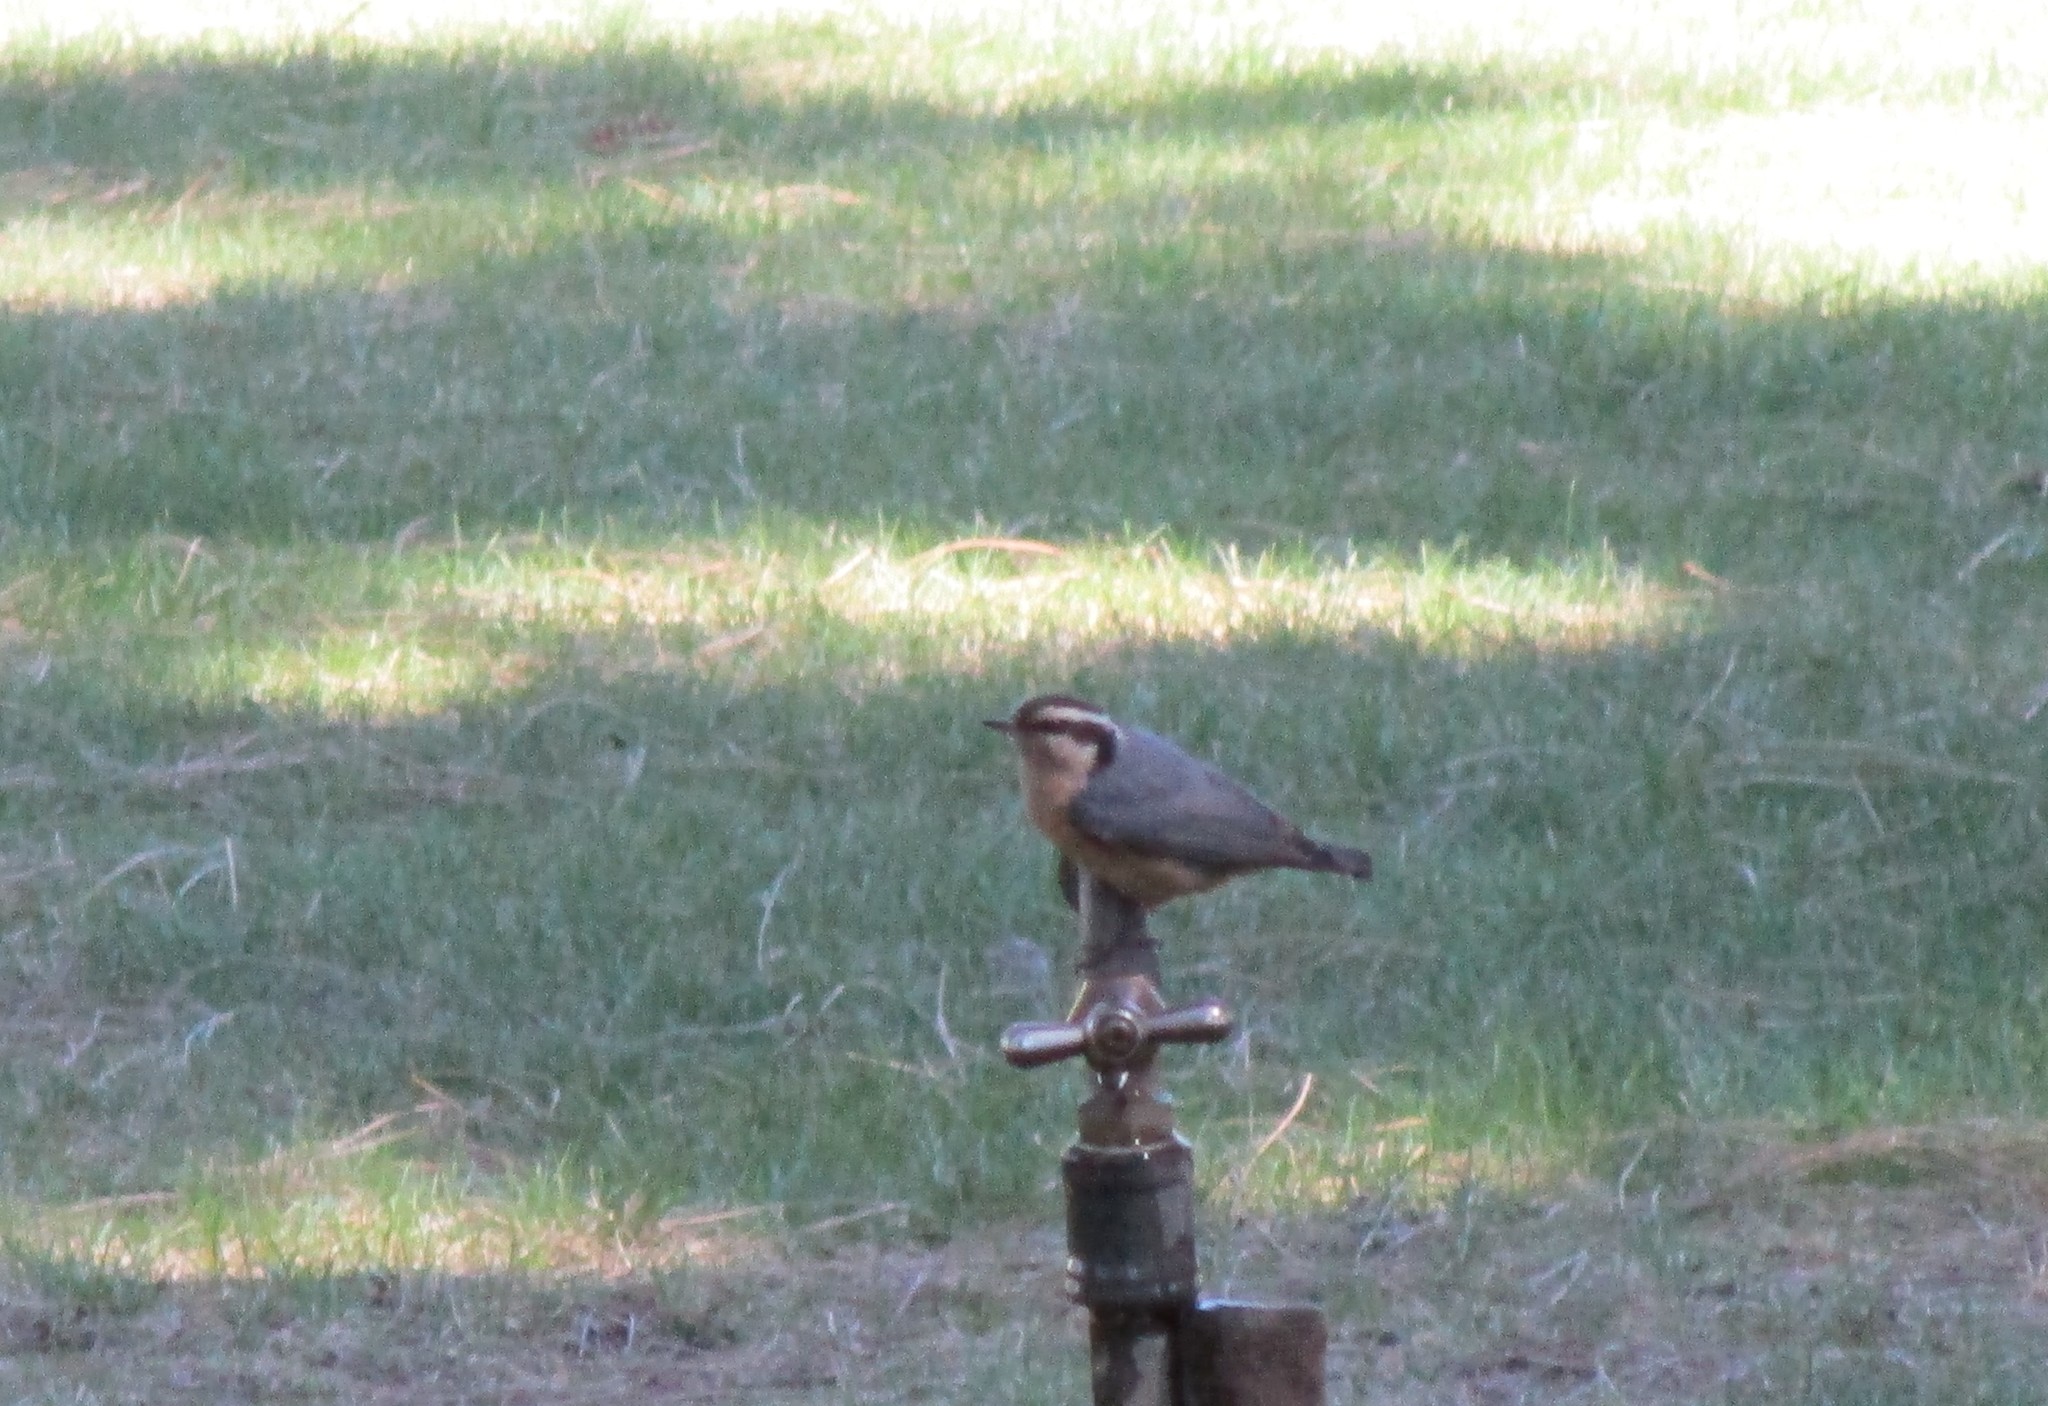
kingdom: Animalia
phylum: Chordata
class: Aves
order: Passeriformes
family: Sittidae
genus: Sitta
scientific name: Sitta canadensis
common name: Red-breasted nuthatch
